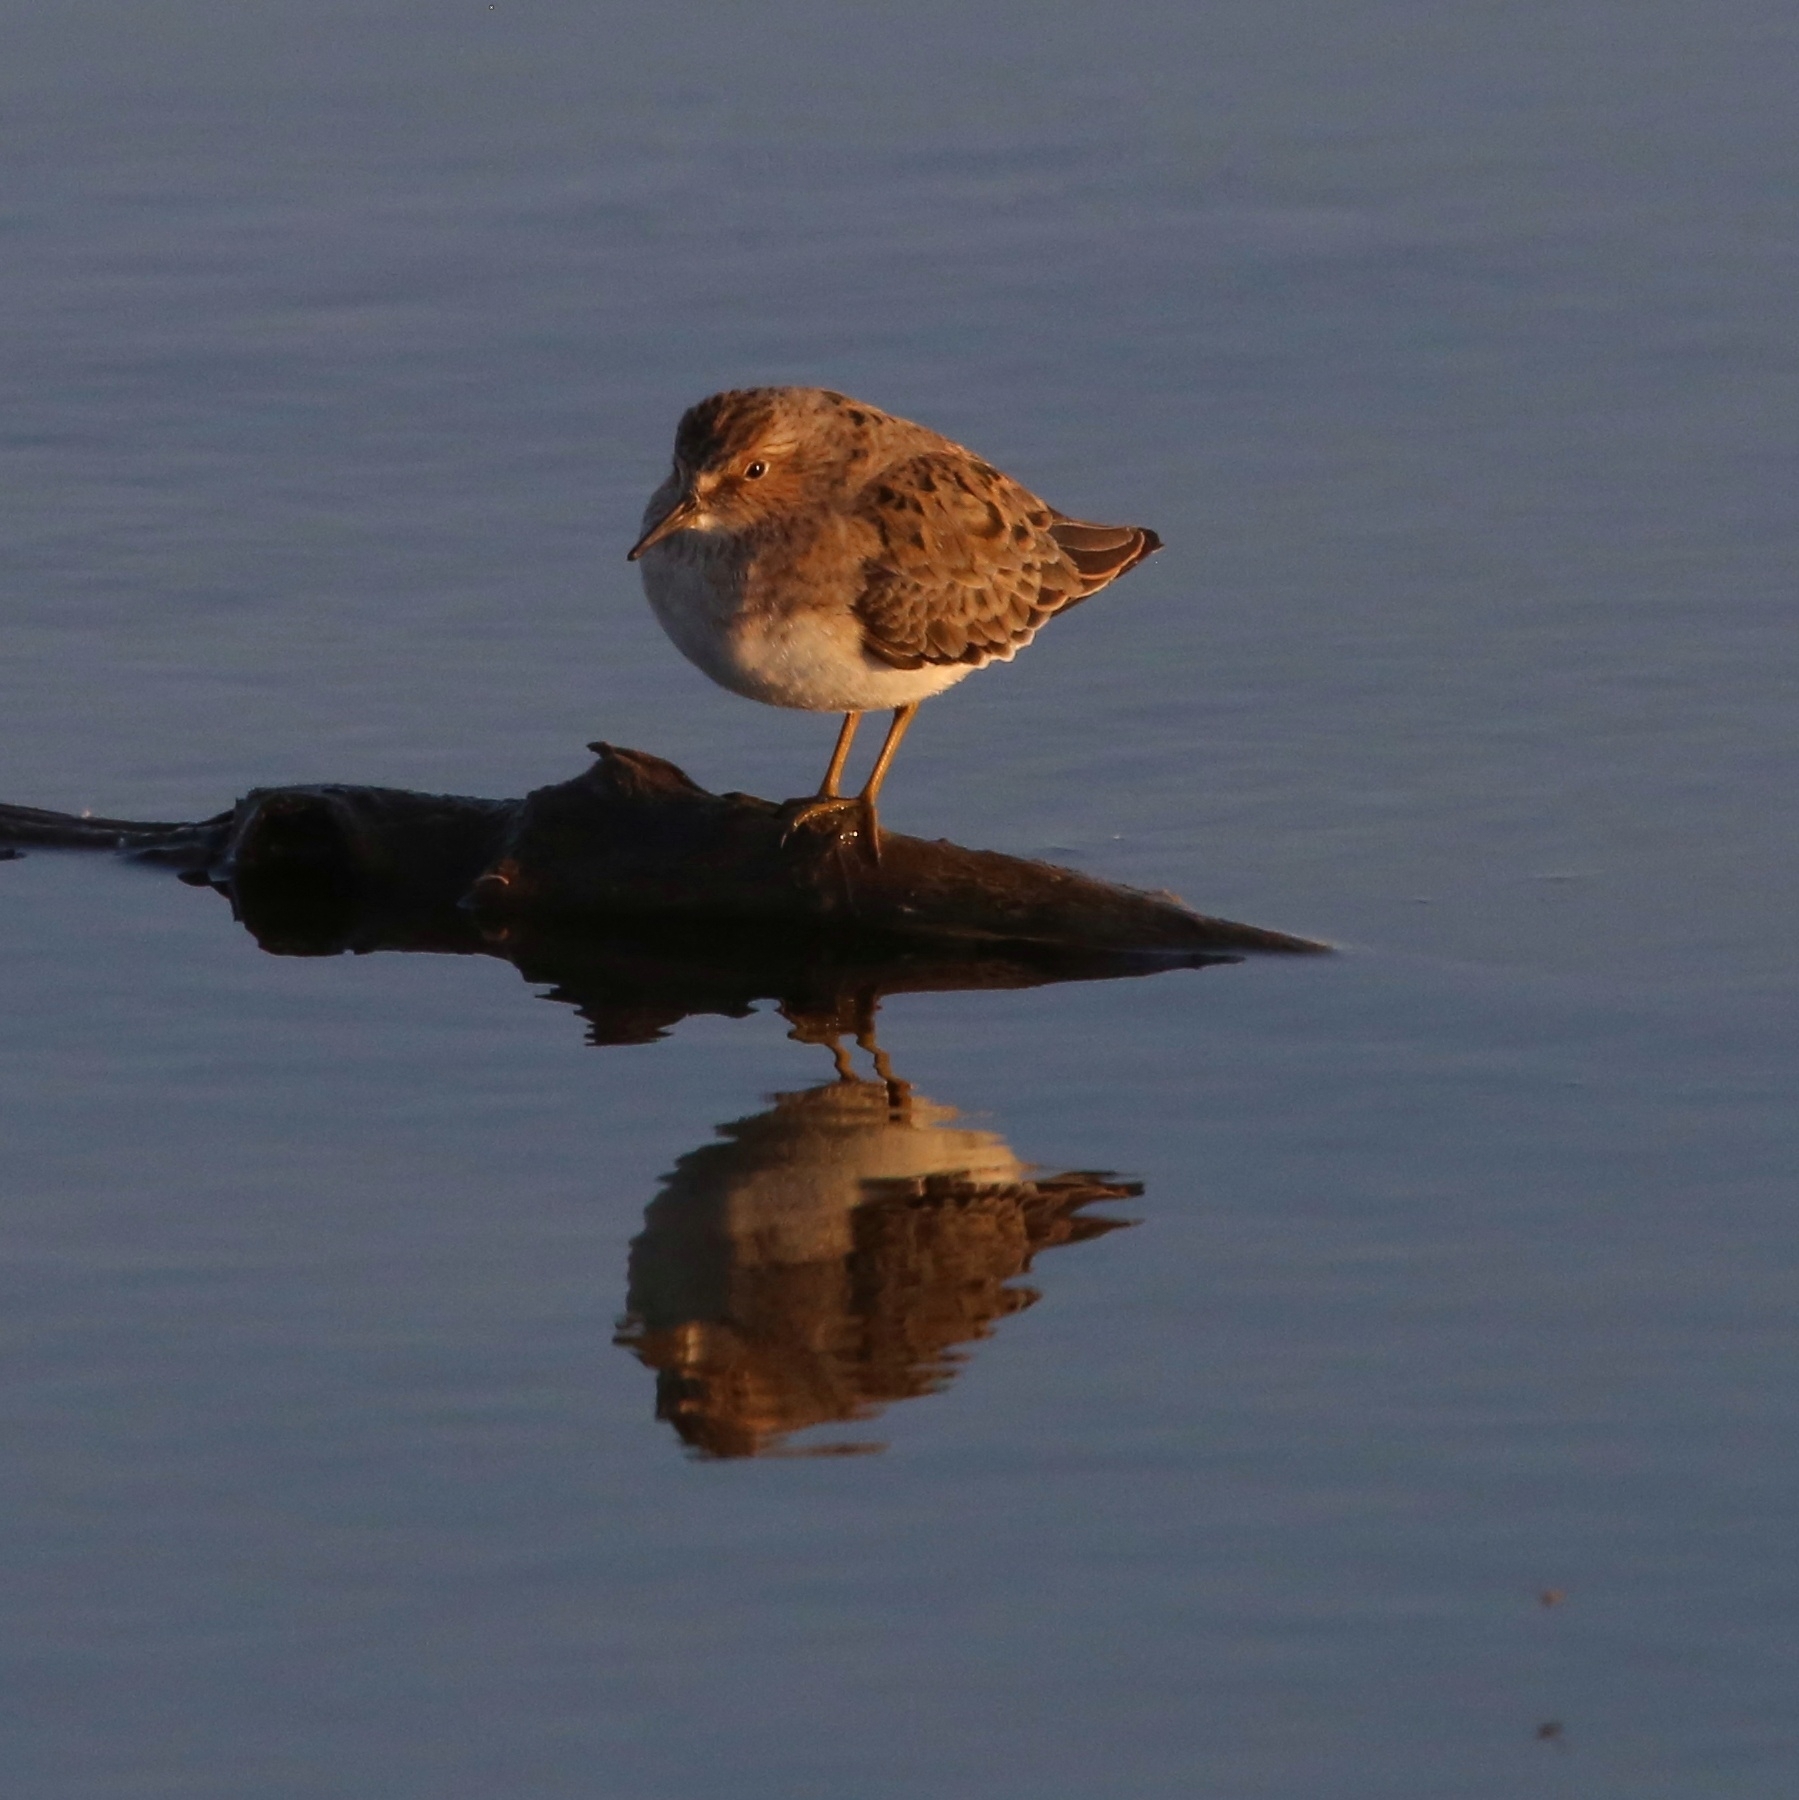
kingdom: Animalia
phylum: Chordata
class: Aves
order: Charadriiformes
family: Scolopacidae
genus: Calidris
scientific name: Calidris temminckii
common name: Temminck's stint
